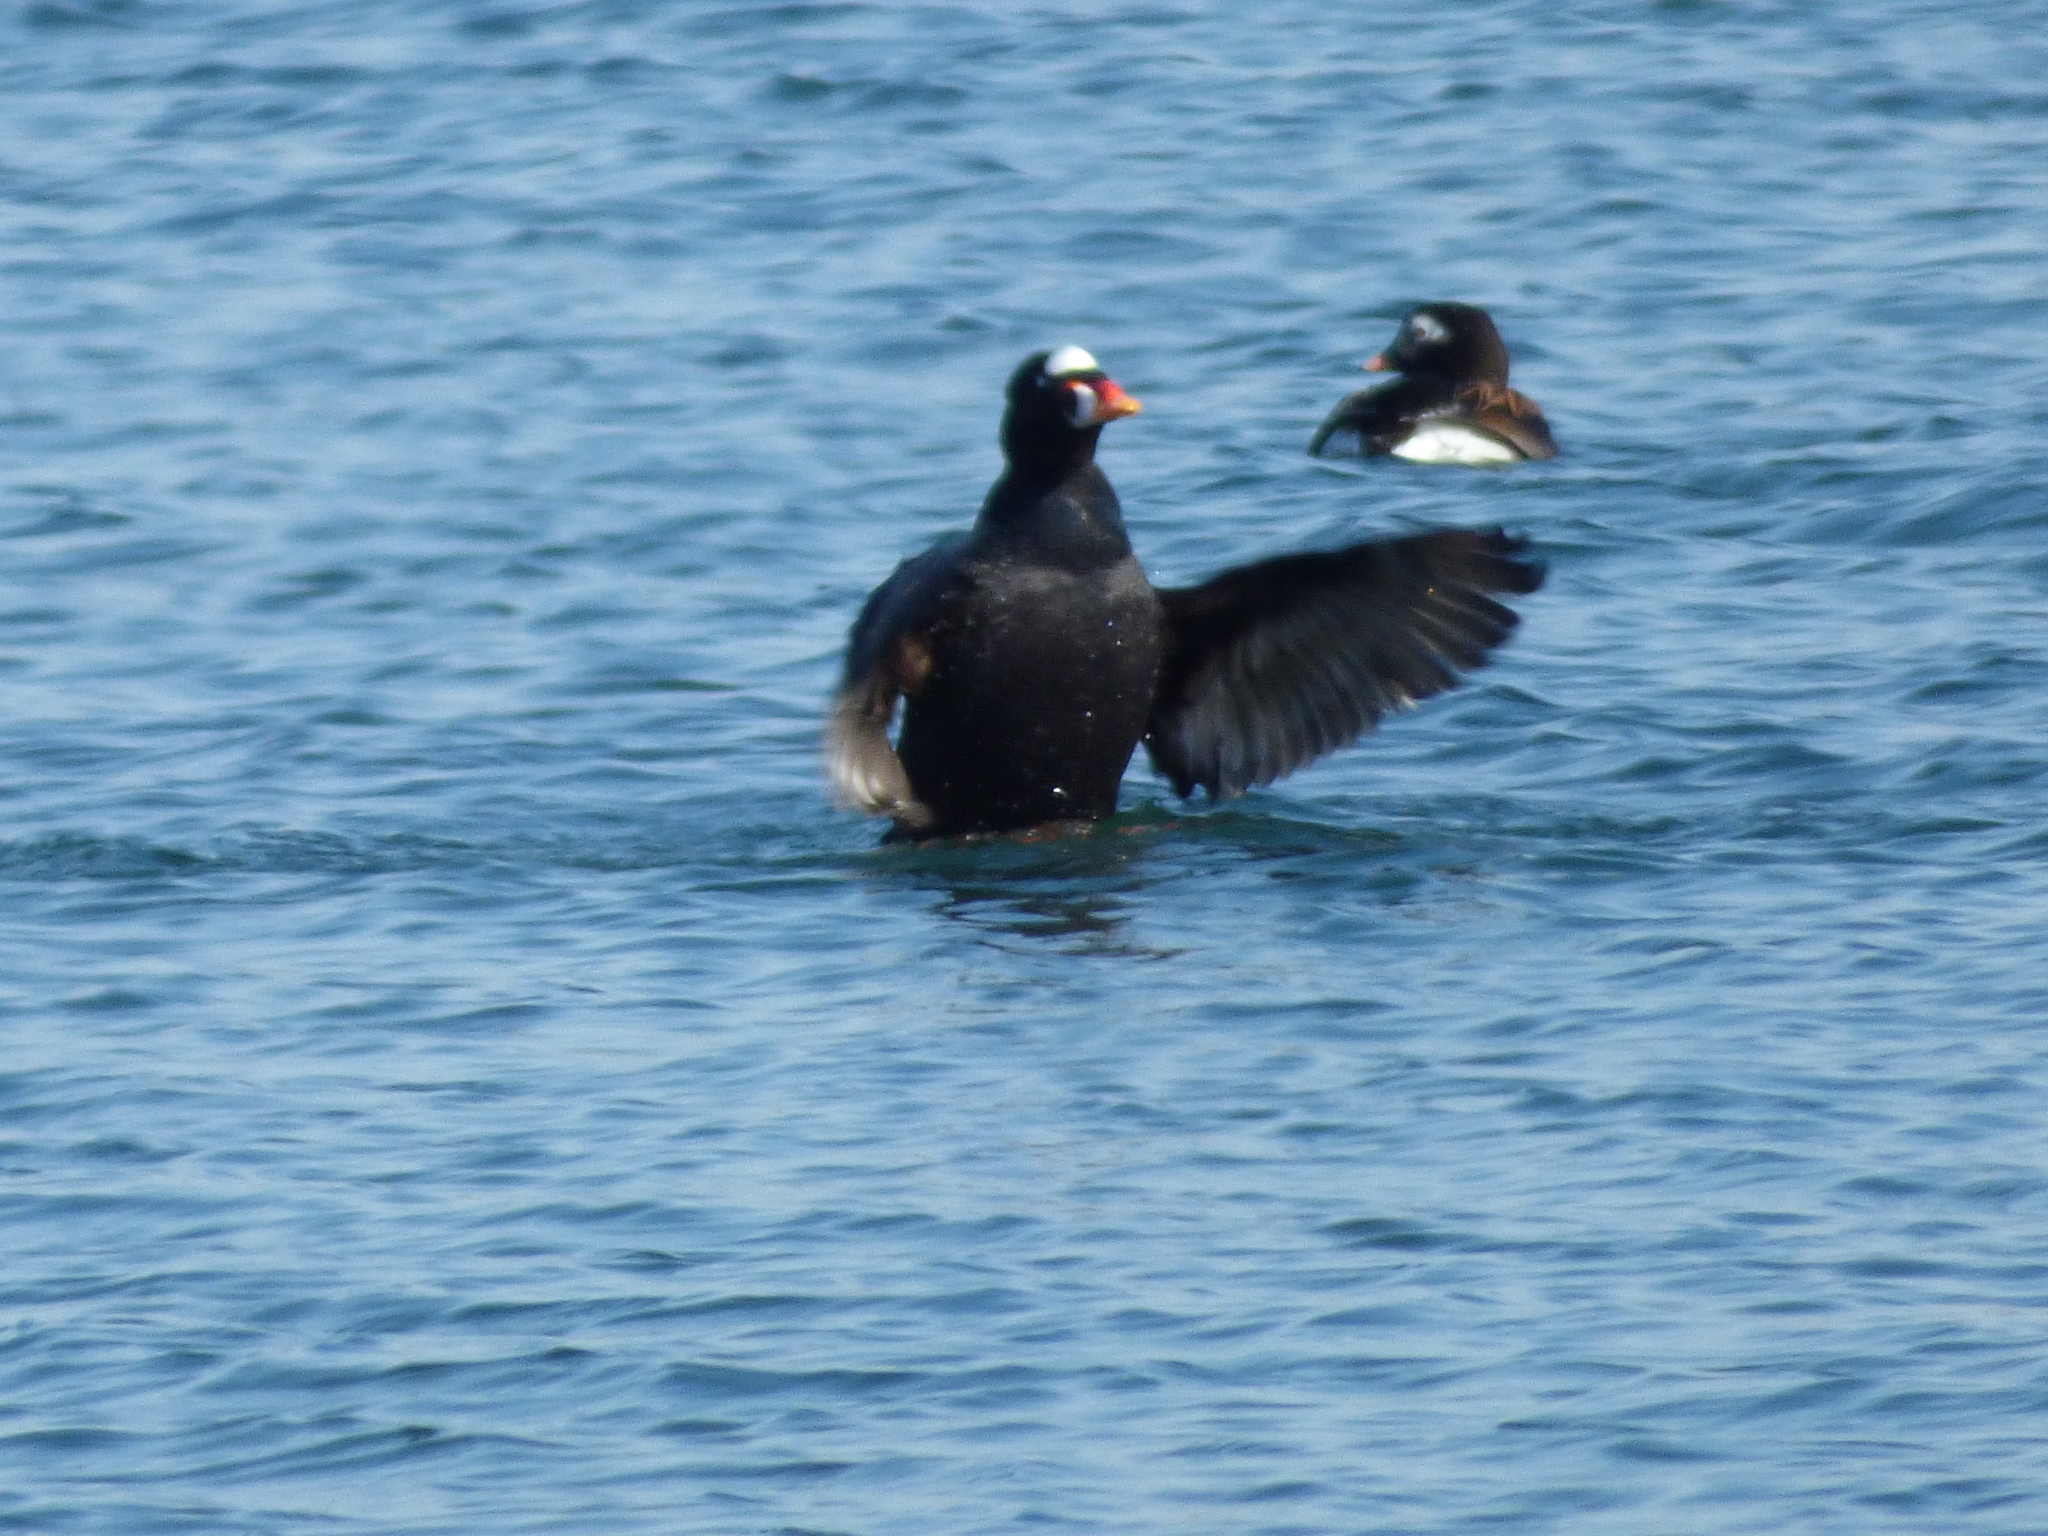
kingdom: Animalia
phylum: Chordata
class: Aves
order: Anseriformes
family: Anatidae
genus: Melanitta
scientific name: Melanitta perspicillata
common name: Surf scoter
